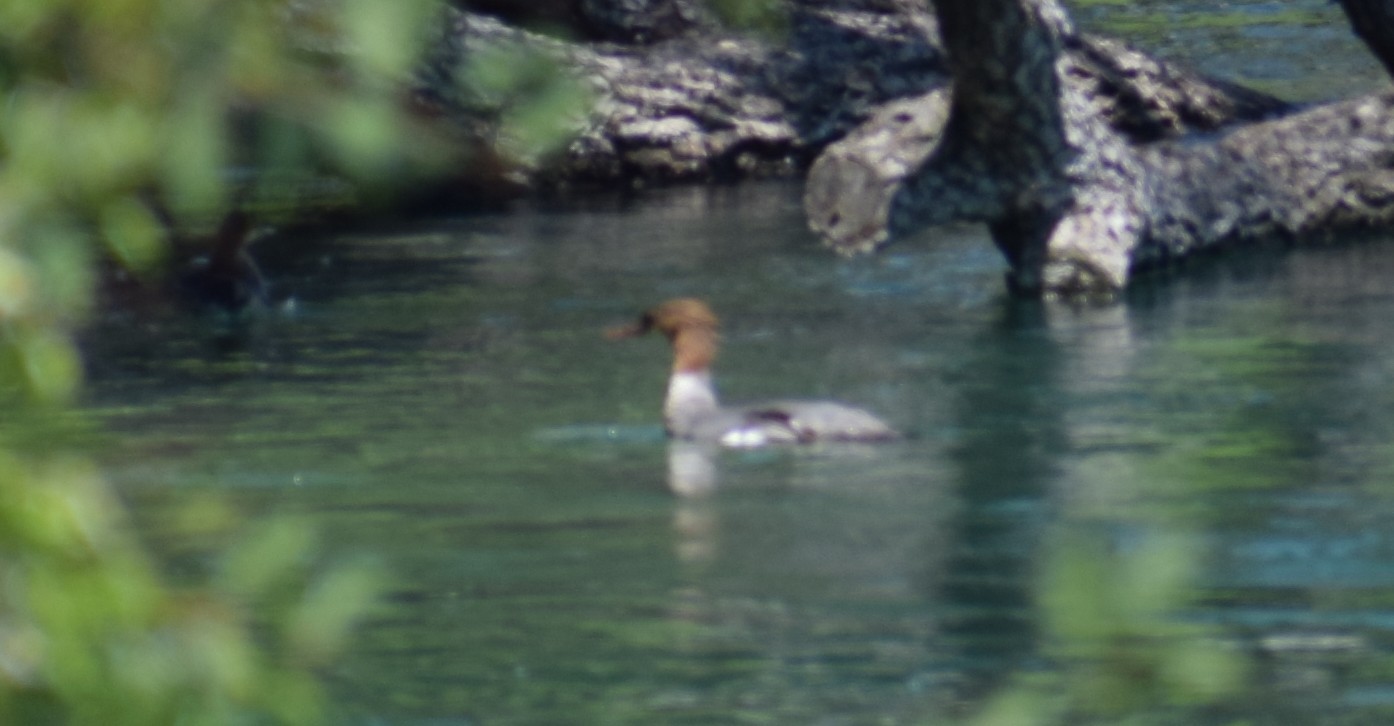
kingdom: Animalia
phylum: Chordata
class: Aves
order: Anseriformes
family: Anatidae
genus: Mergus
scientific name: Mergus merganser
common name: Common merganser
